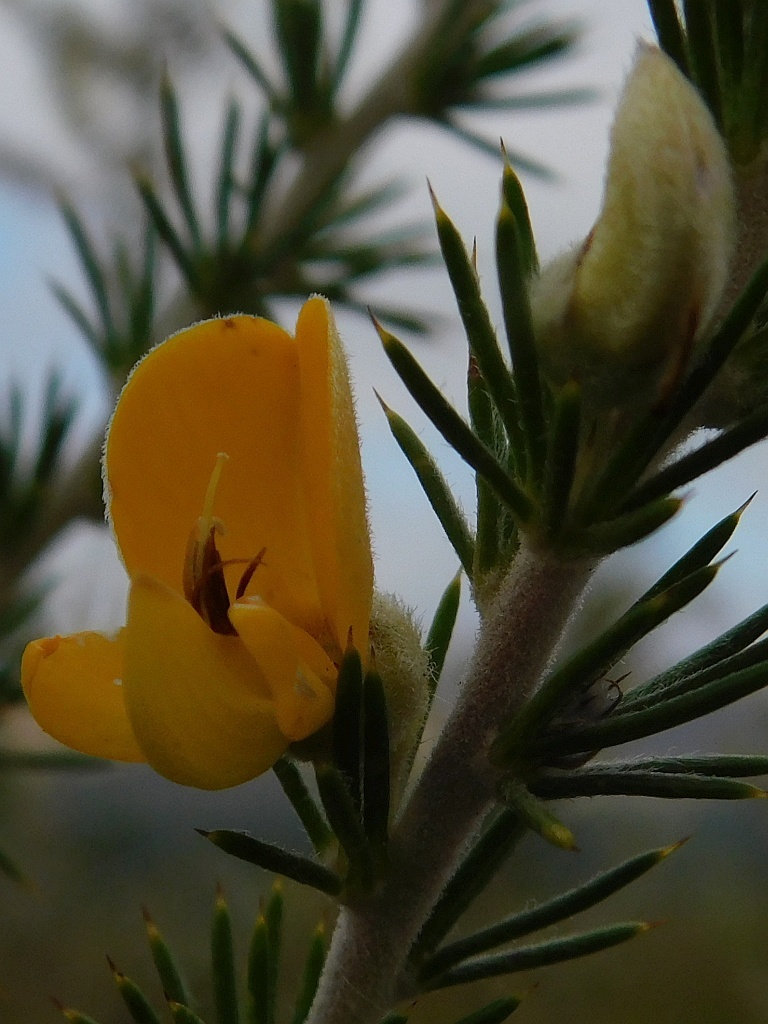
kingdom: Plantae
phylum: Tracheophyta
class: Magnoliopsida
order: Fabales
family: Fabaceae
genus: Aspalathus
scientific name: Aspalathus hirta
